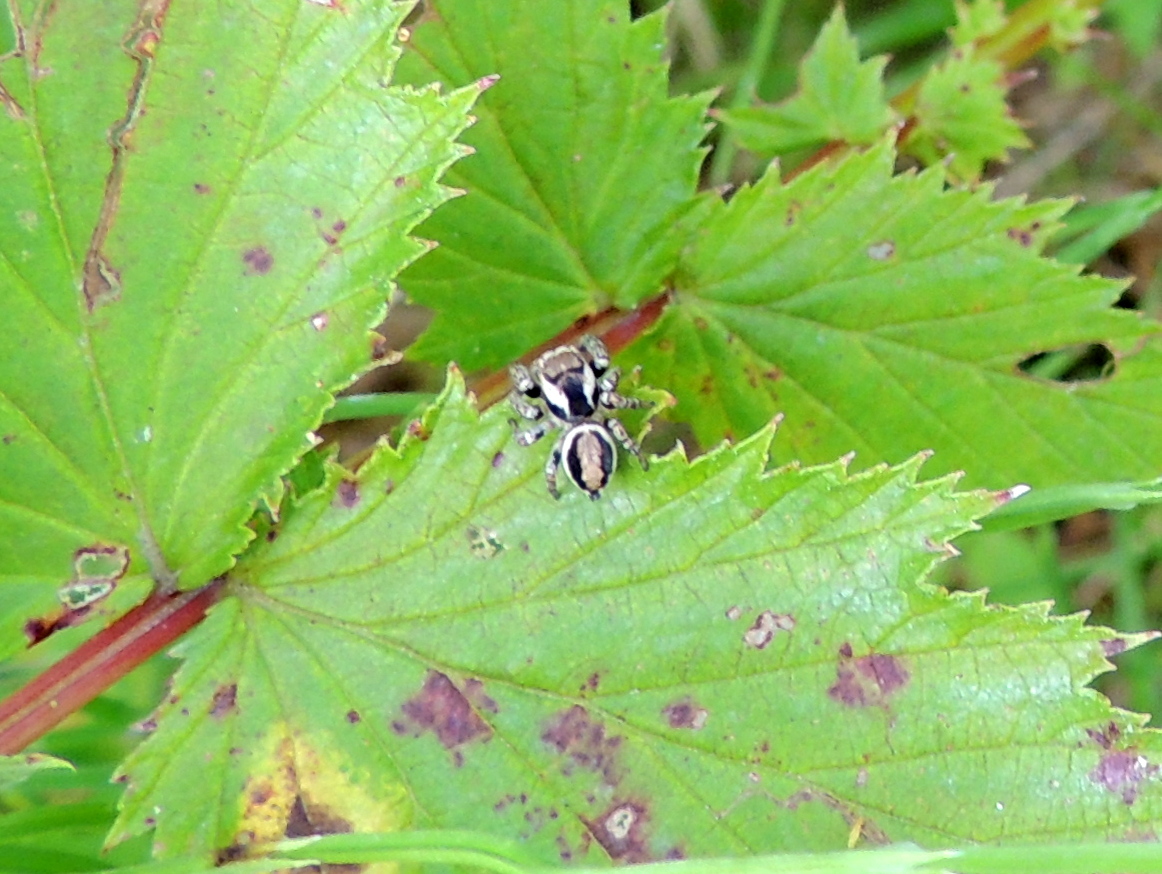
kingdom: Animalia
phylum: Arthropoda
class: Arachnida
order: Araneae
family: Salticidae
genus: Evarcha
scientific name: Evarcha falcata
